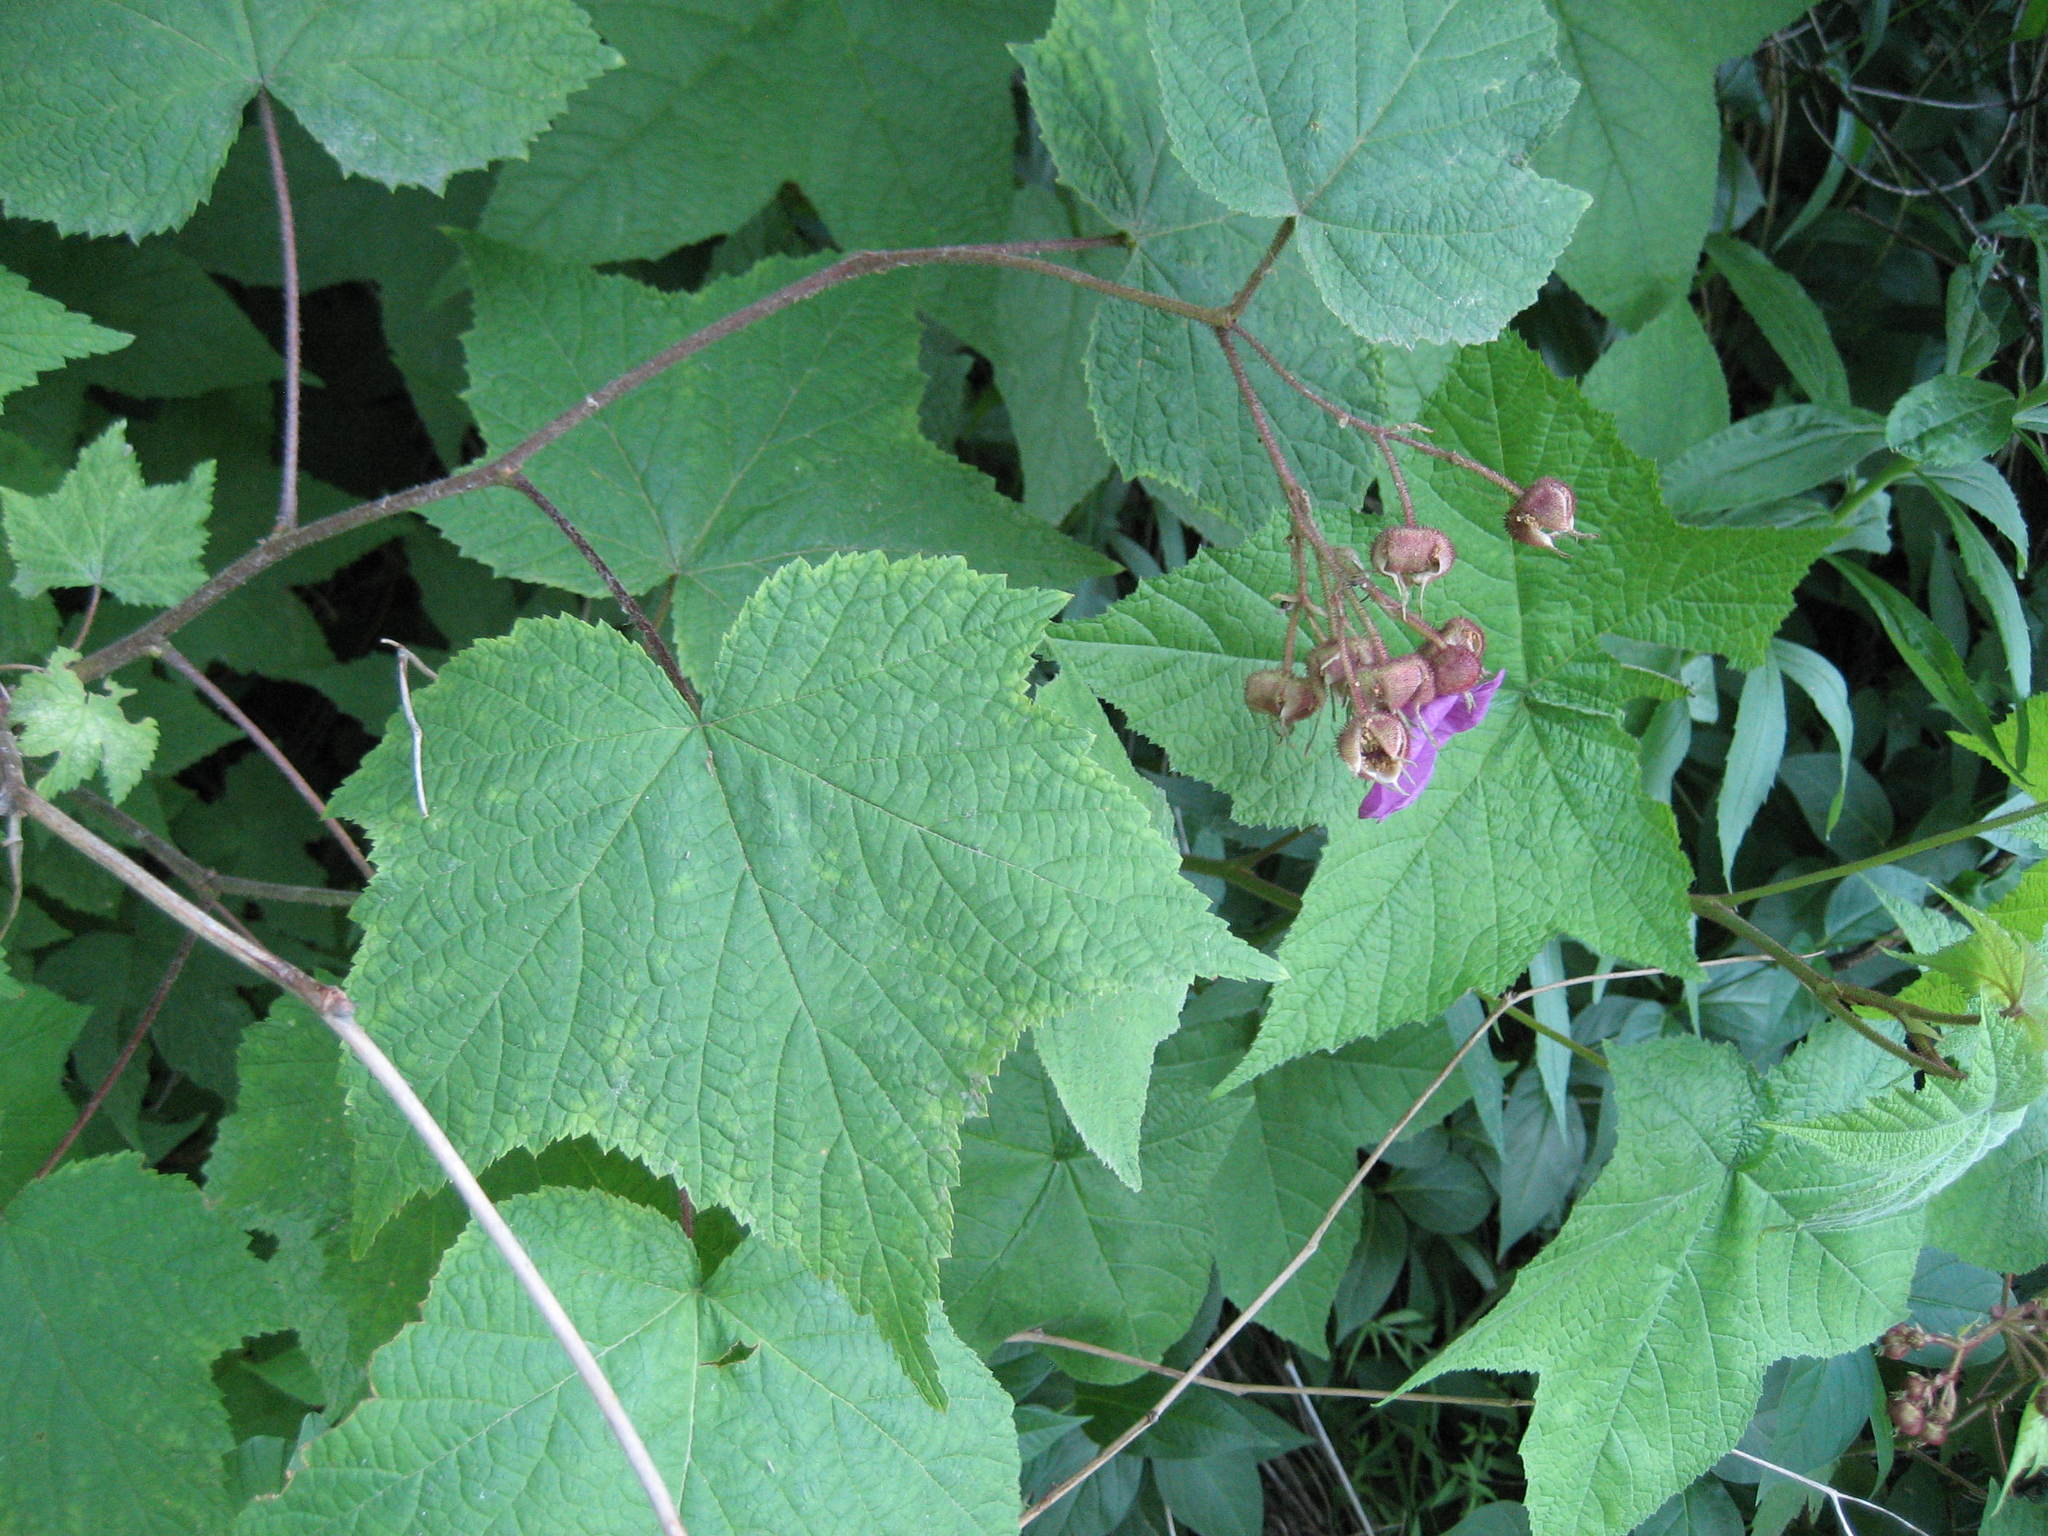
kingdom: Plantae
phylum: Tracheophyta
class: Magnoliopsida
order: Rosales
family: Rosaceae
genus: Rubus
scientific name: Rubus odoratus
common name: Purple-flowered raspberry
